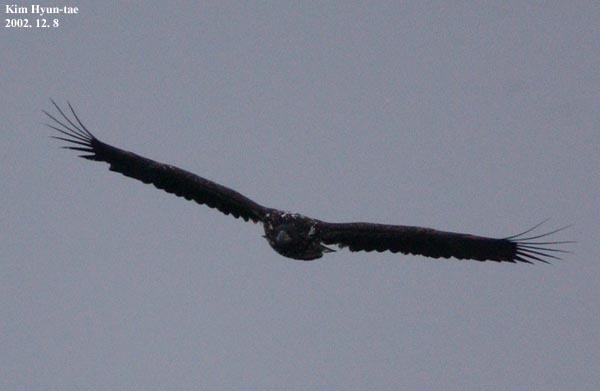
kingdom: Animalia
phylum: Chordata
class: Aves
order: Accipitriformes
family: Accipitridae
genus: Haliaeetus
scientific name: Haliaeetus albicilla
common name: White-tailed eagle
